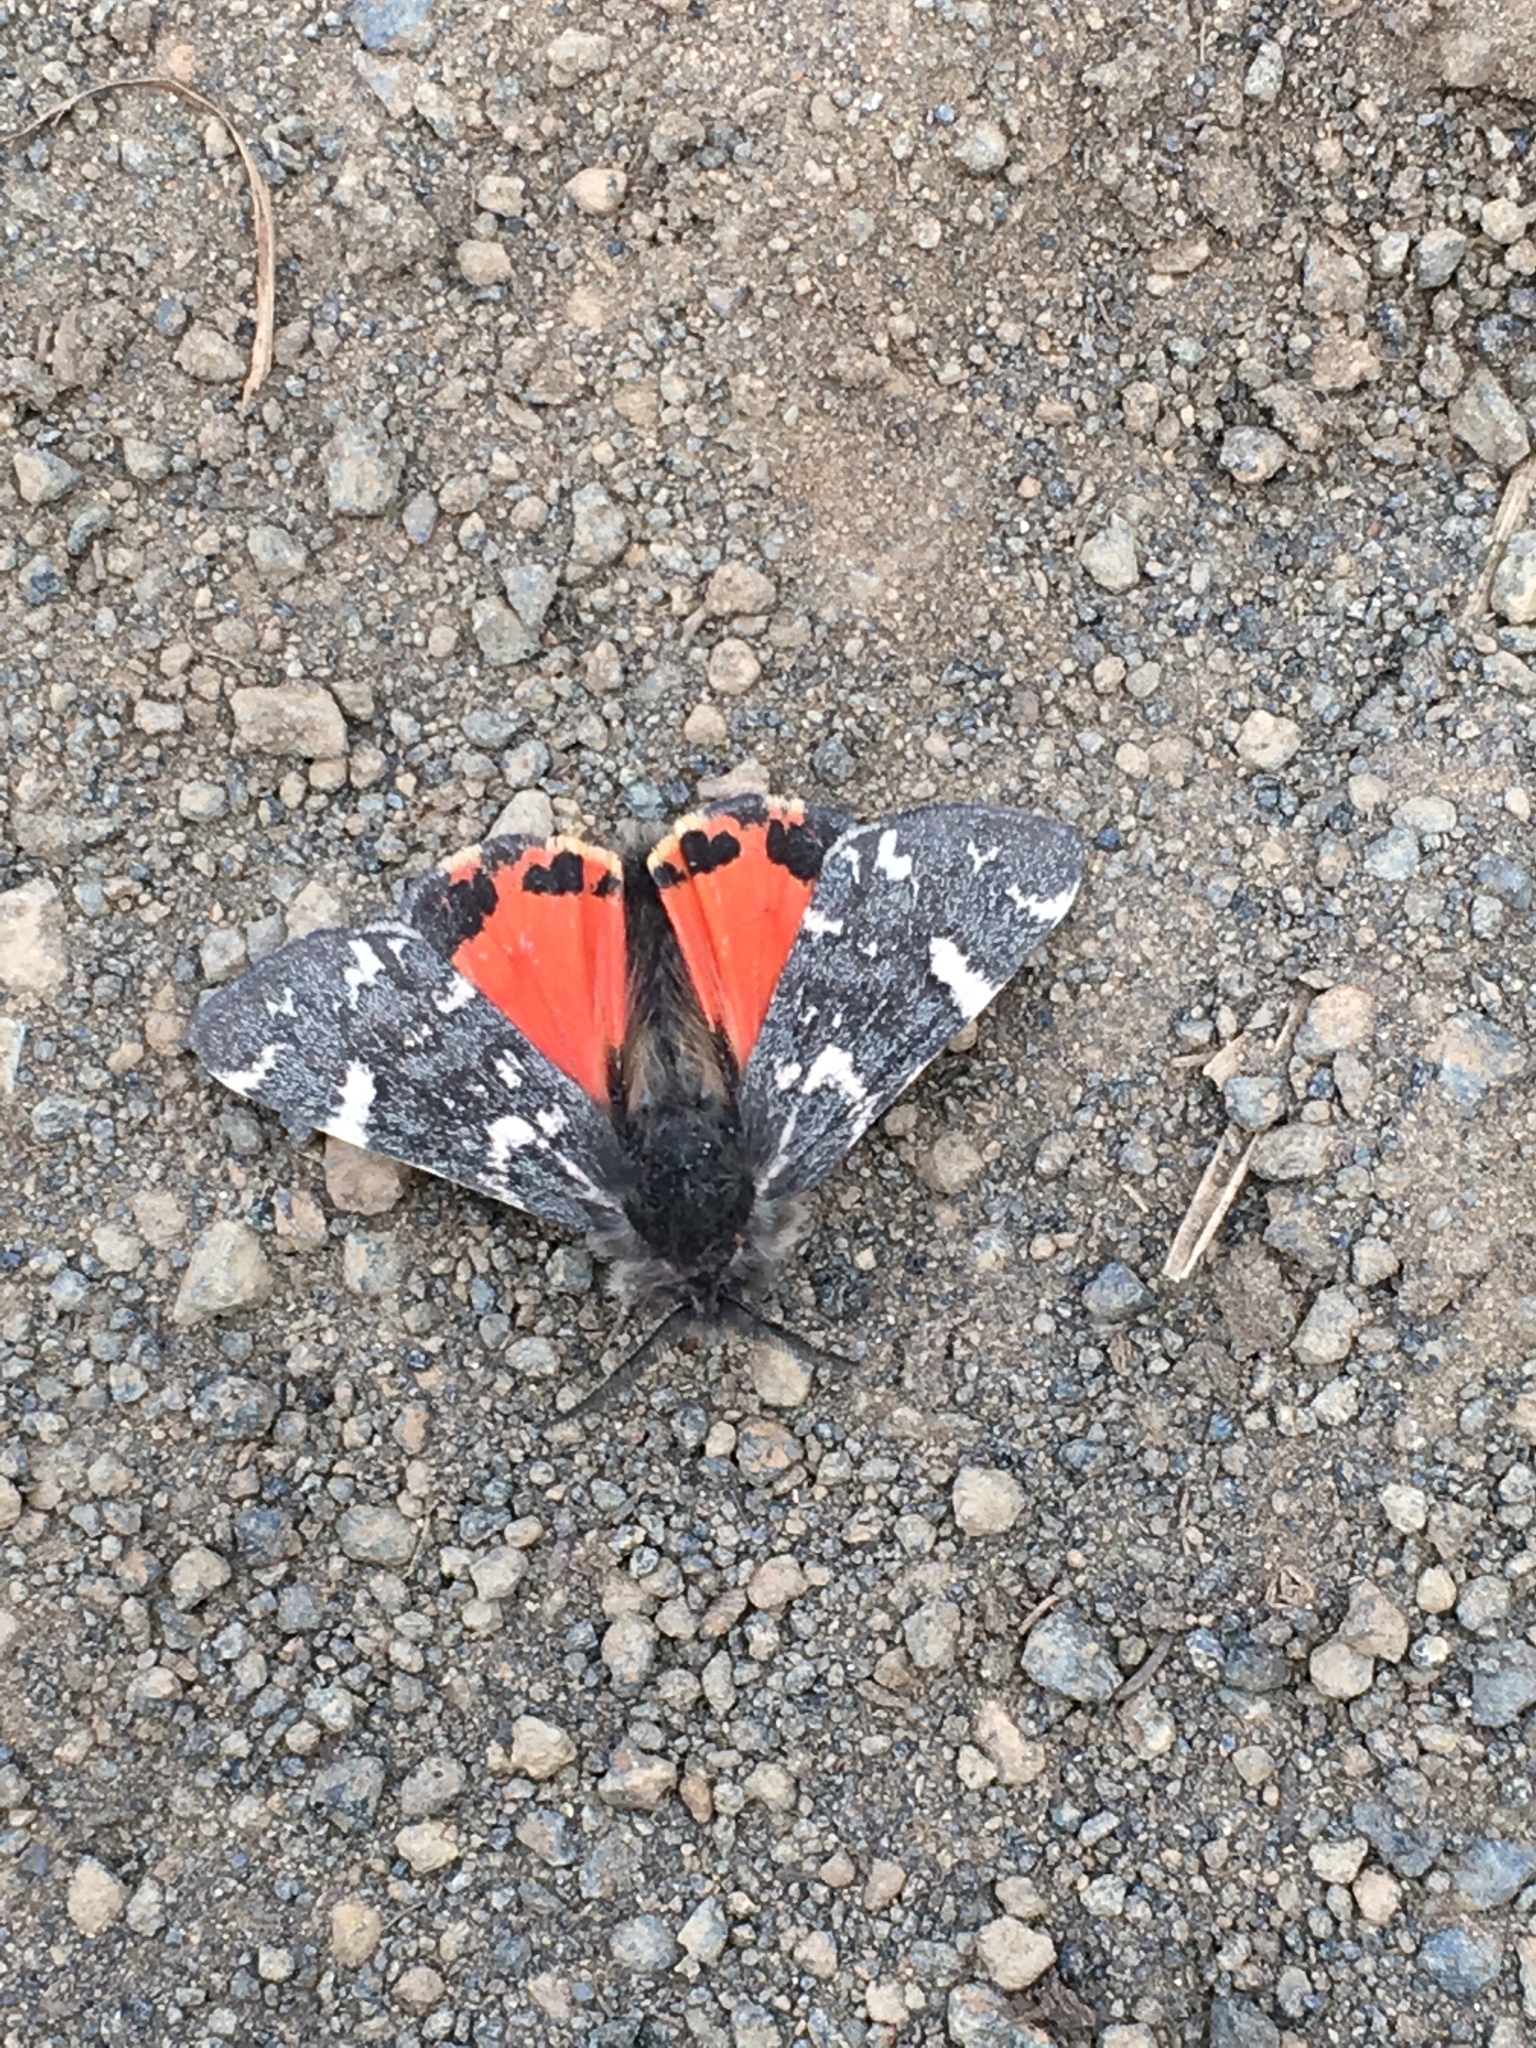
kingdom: Animalia
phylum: Arthropoda
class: Insecta
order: Lepidoptera
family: Erebidae
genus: Leptarctia
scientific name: Leptarctia californiae
